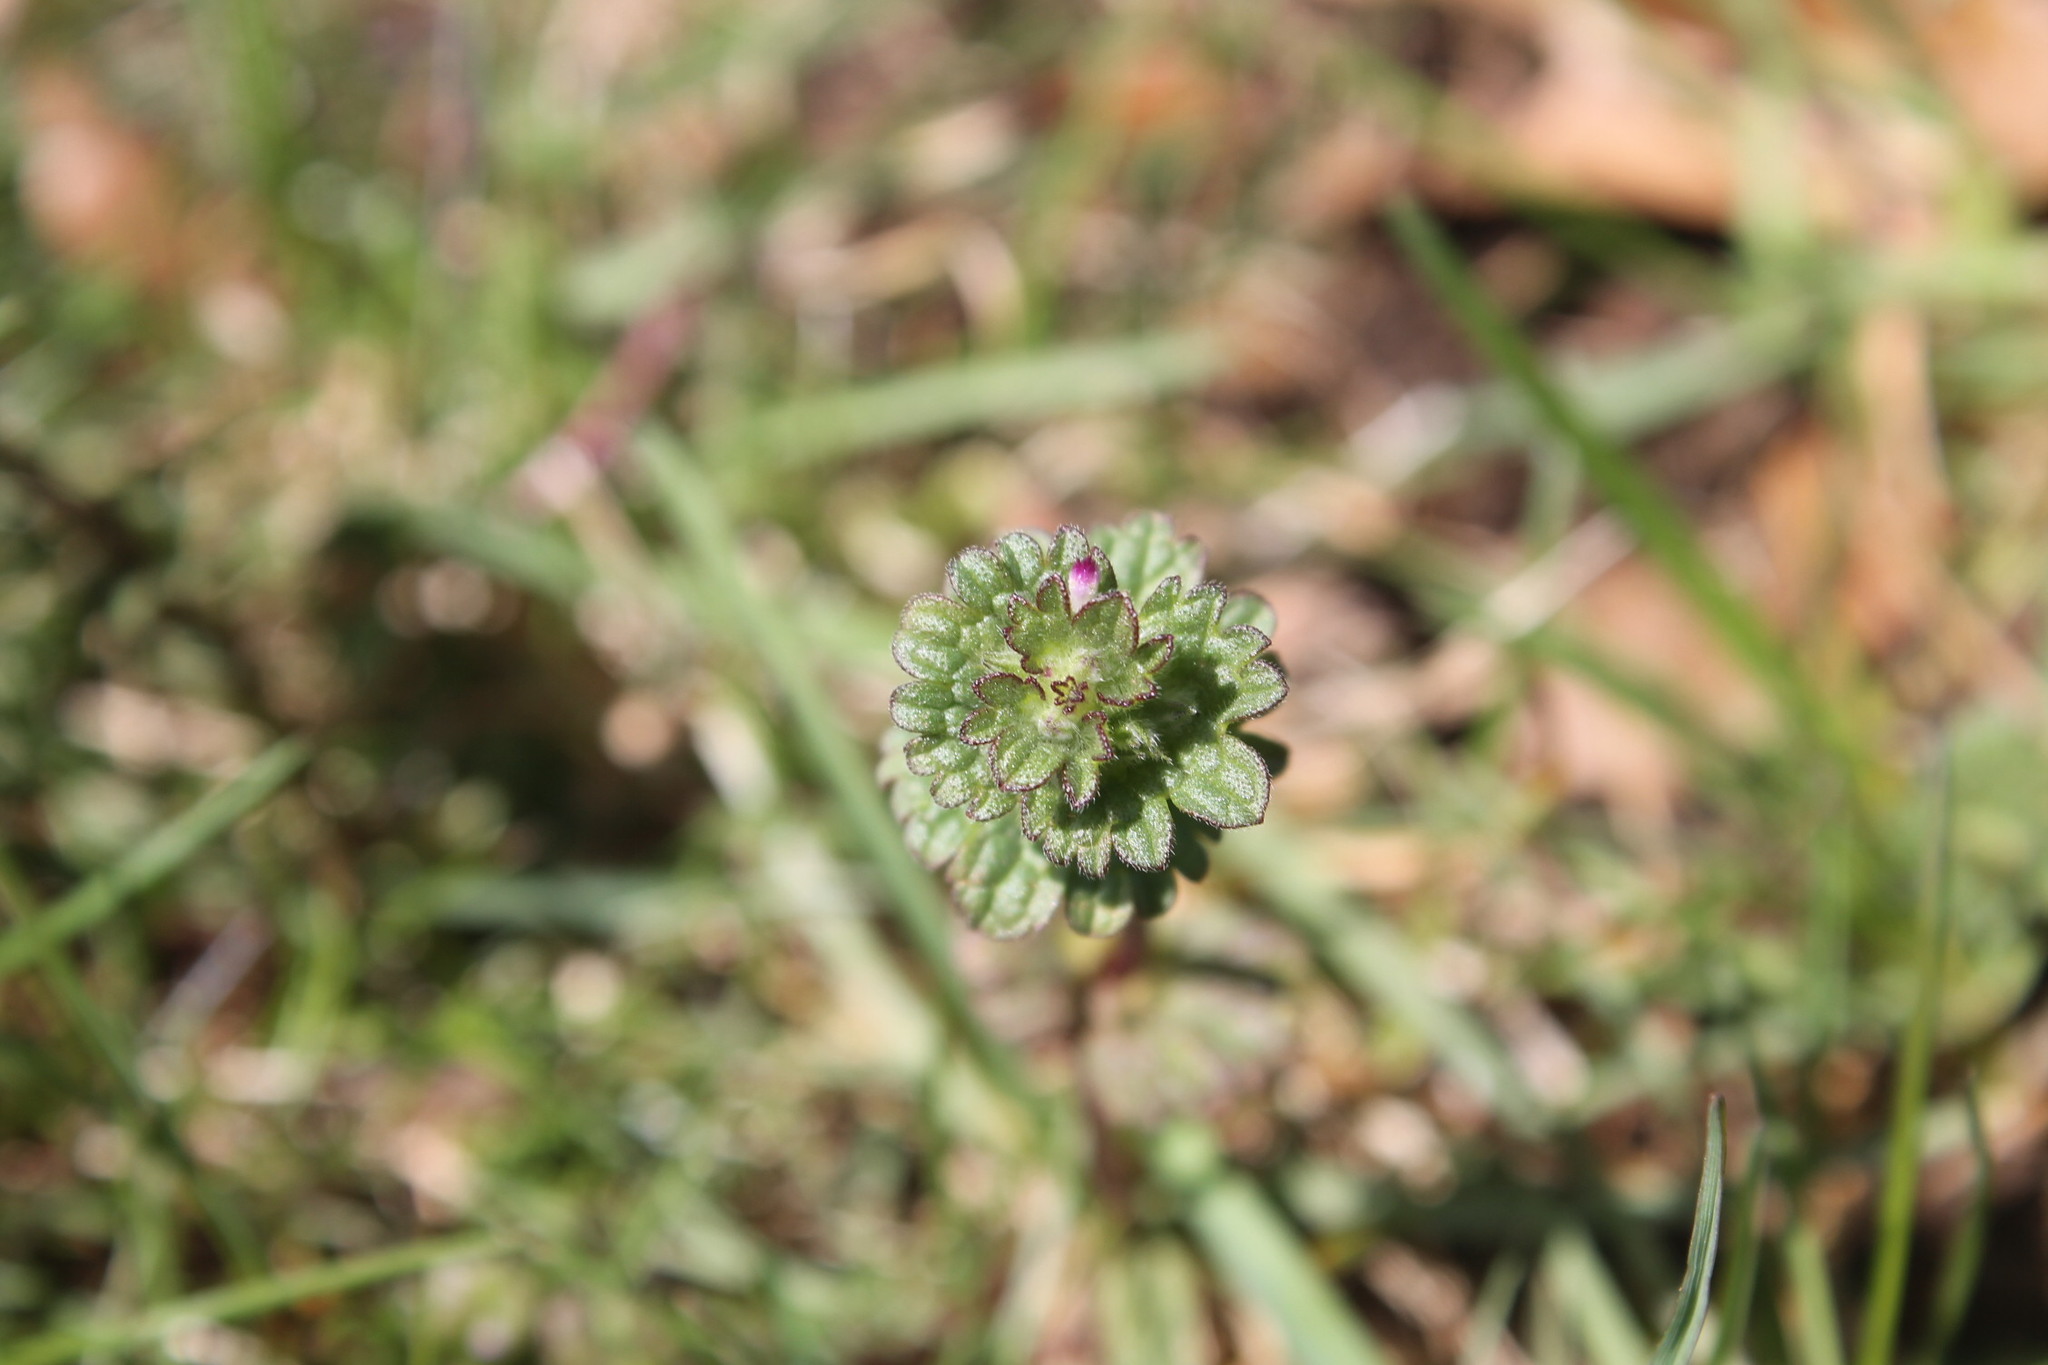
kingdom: Plantae
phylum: Tracheophyta
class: Magnoliopsida
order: Lamiales
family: Lamiaceae
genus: Lamium
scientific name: Lamium amplexicaule
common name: Henbit dead-nettle
